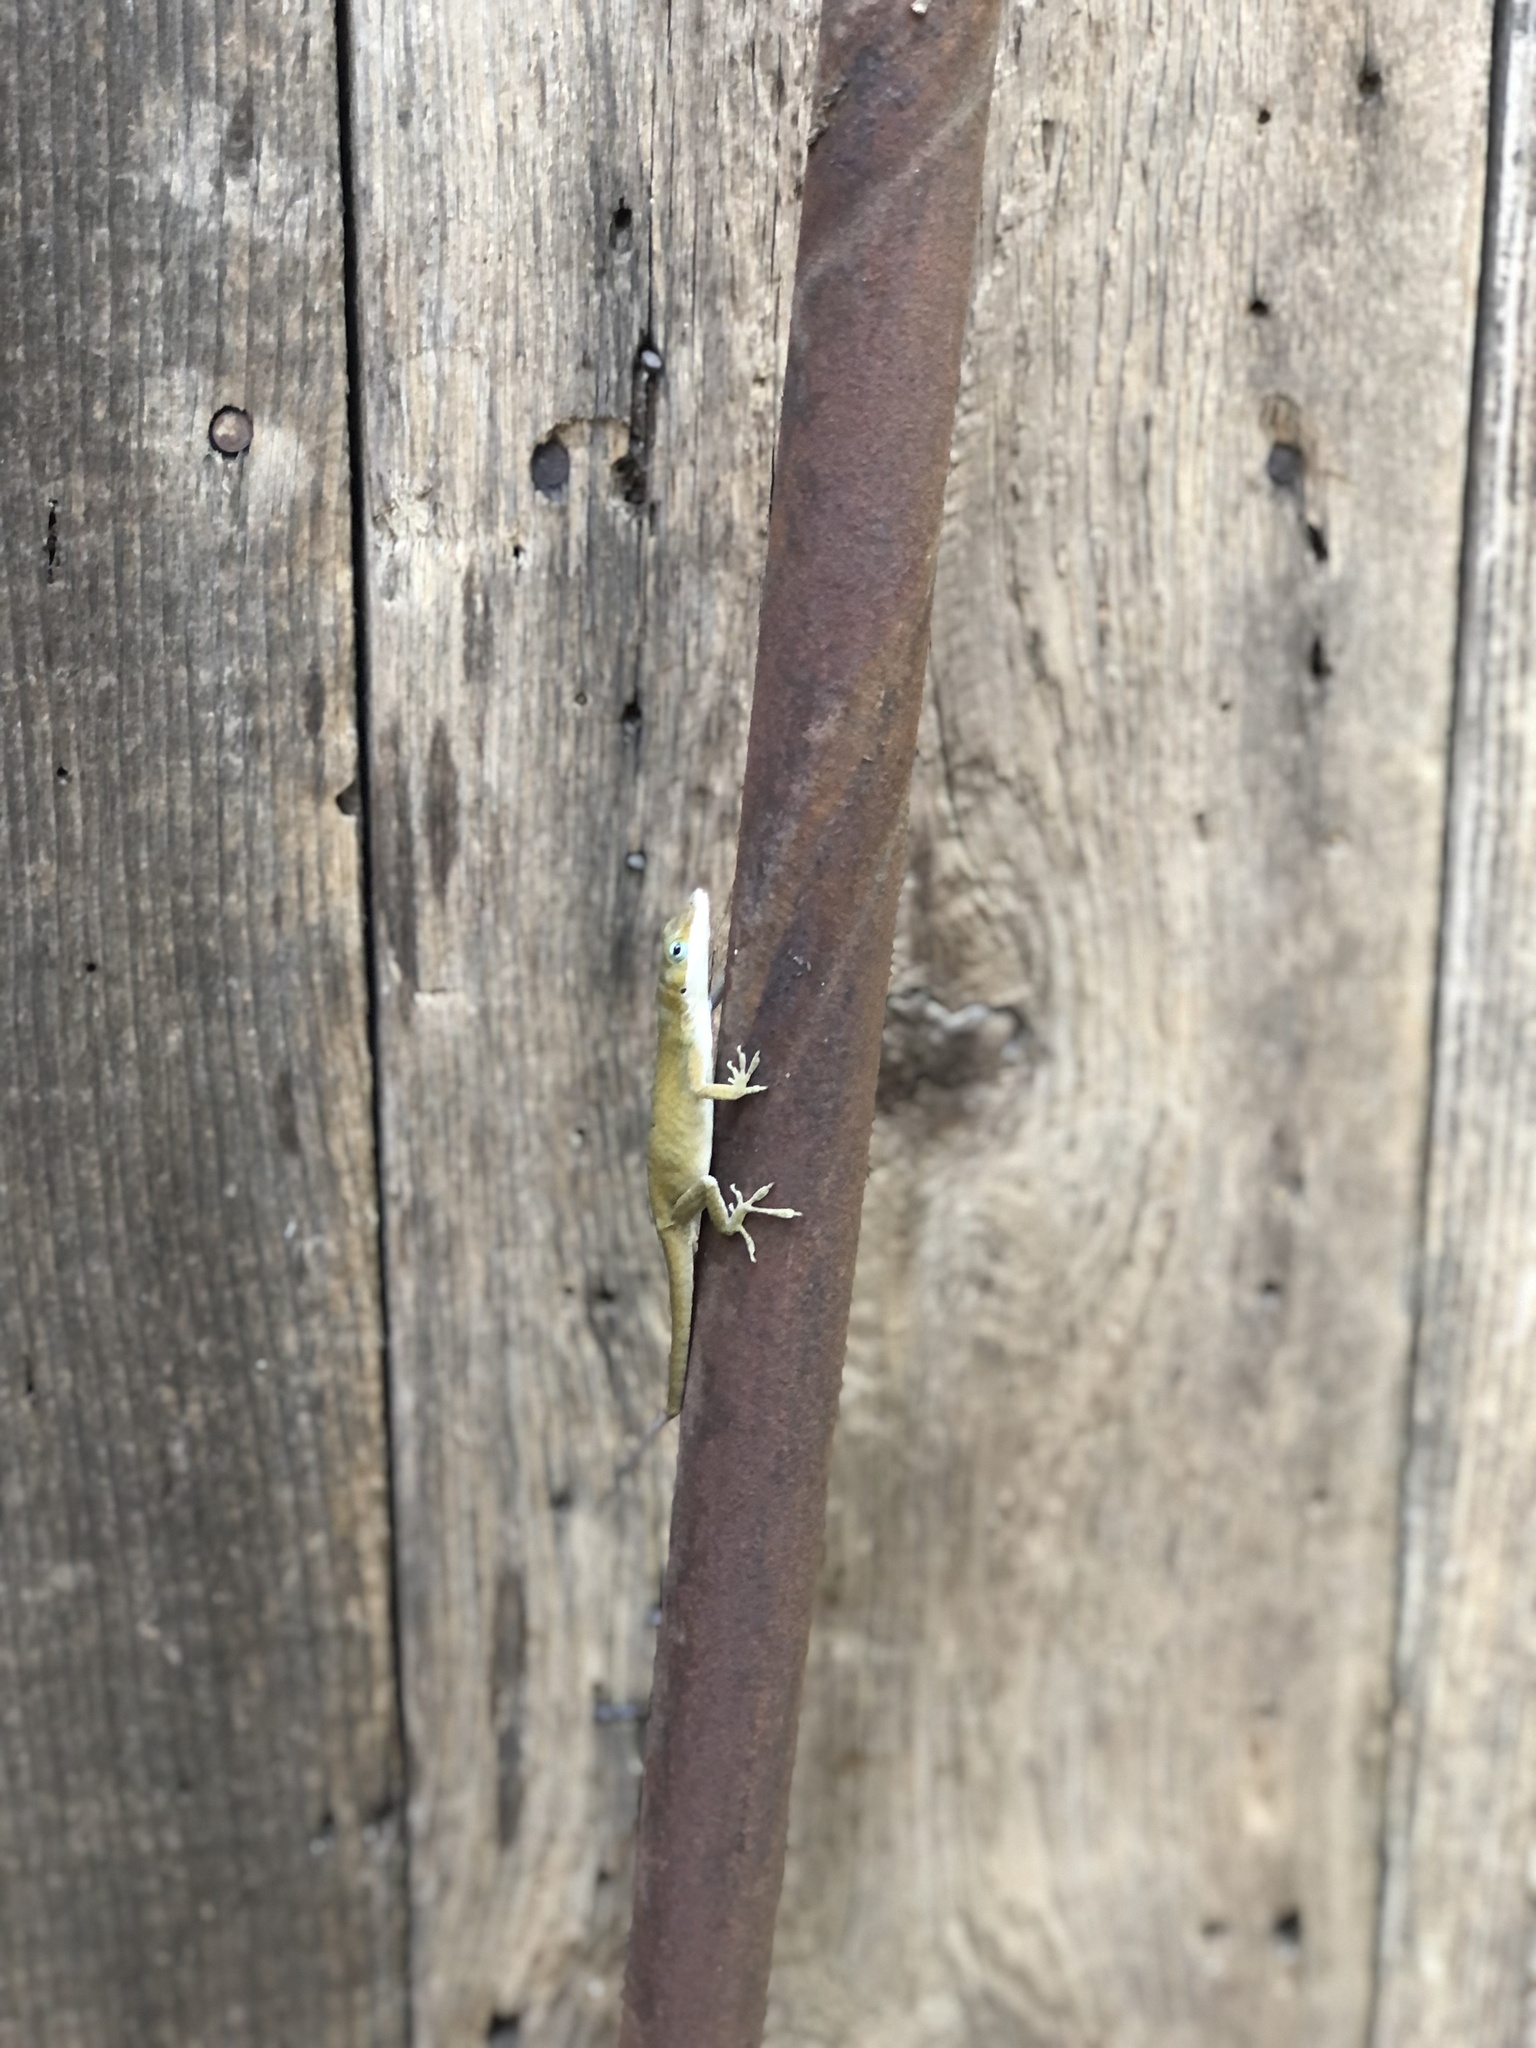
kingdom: Animalia
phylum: Chordata
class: Squamata
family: Dactyloidae
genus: Anolis
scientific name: Anolis carolinensis
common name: Green anole
